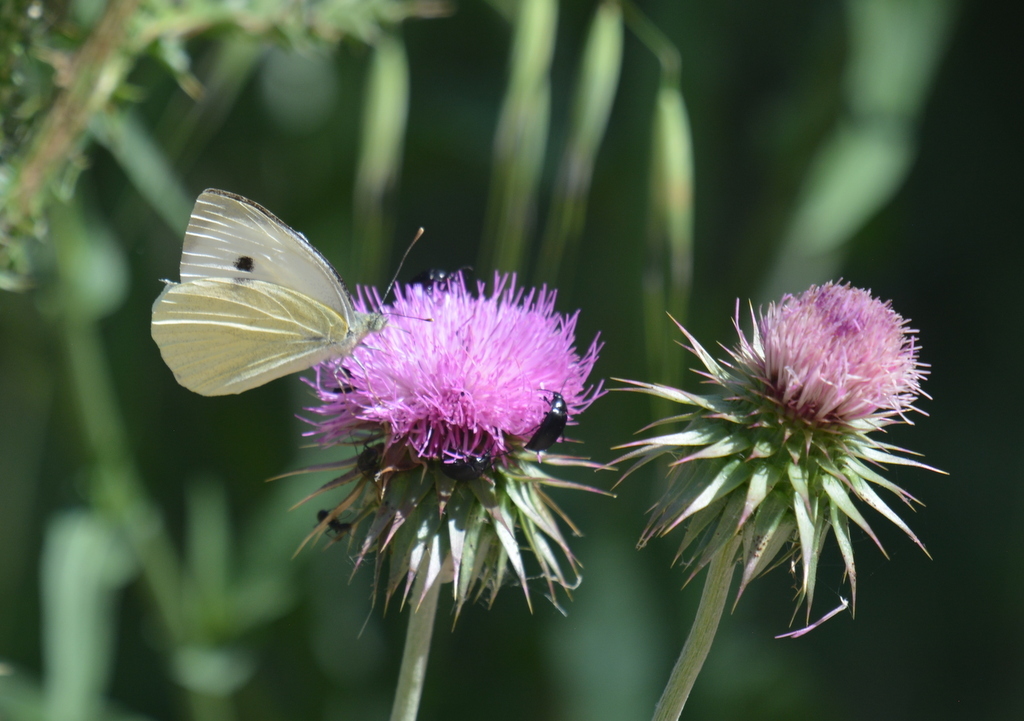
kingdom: Animalia
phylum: Arthropoda
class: Insecta
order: Lepidoptera
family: Pieridae
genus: Pieris
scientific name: Pieris brassicae
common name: Large white
